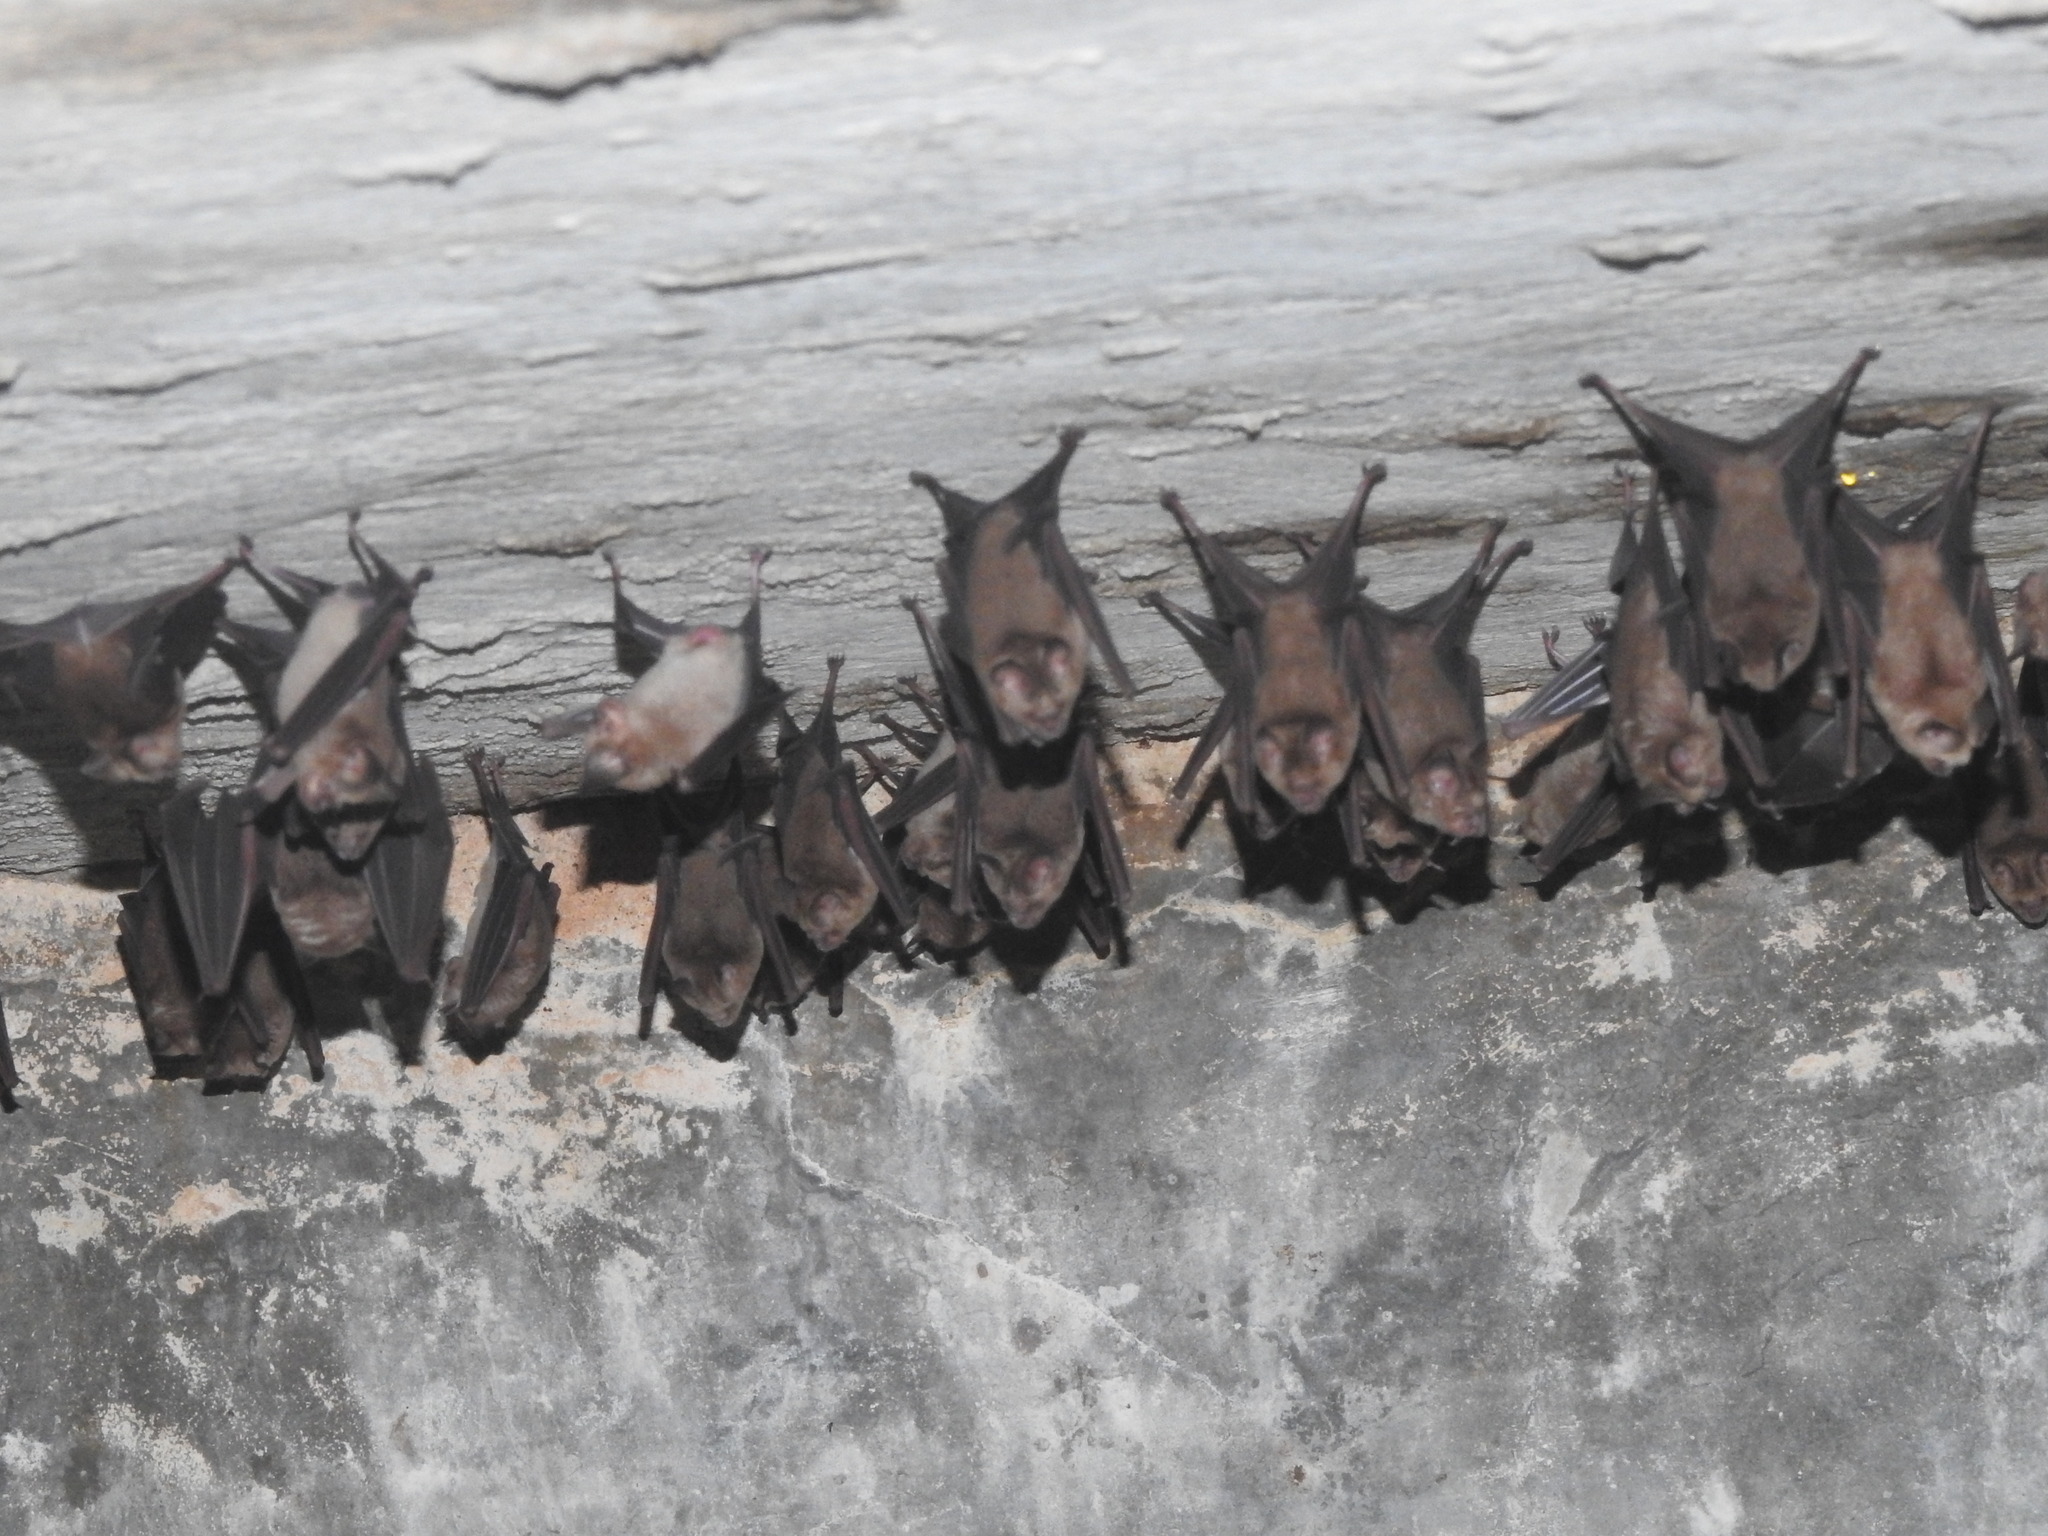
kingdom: Animalia
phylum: Chordata
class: Mammalia
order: Chiroptera
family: Hipposideridae
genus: Hipposideros
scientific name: Hipposideros speoris
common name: Schneider's roundleaf bat
